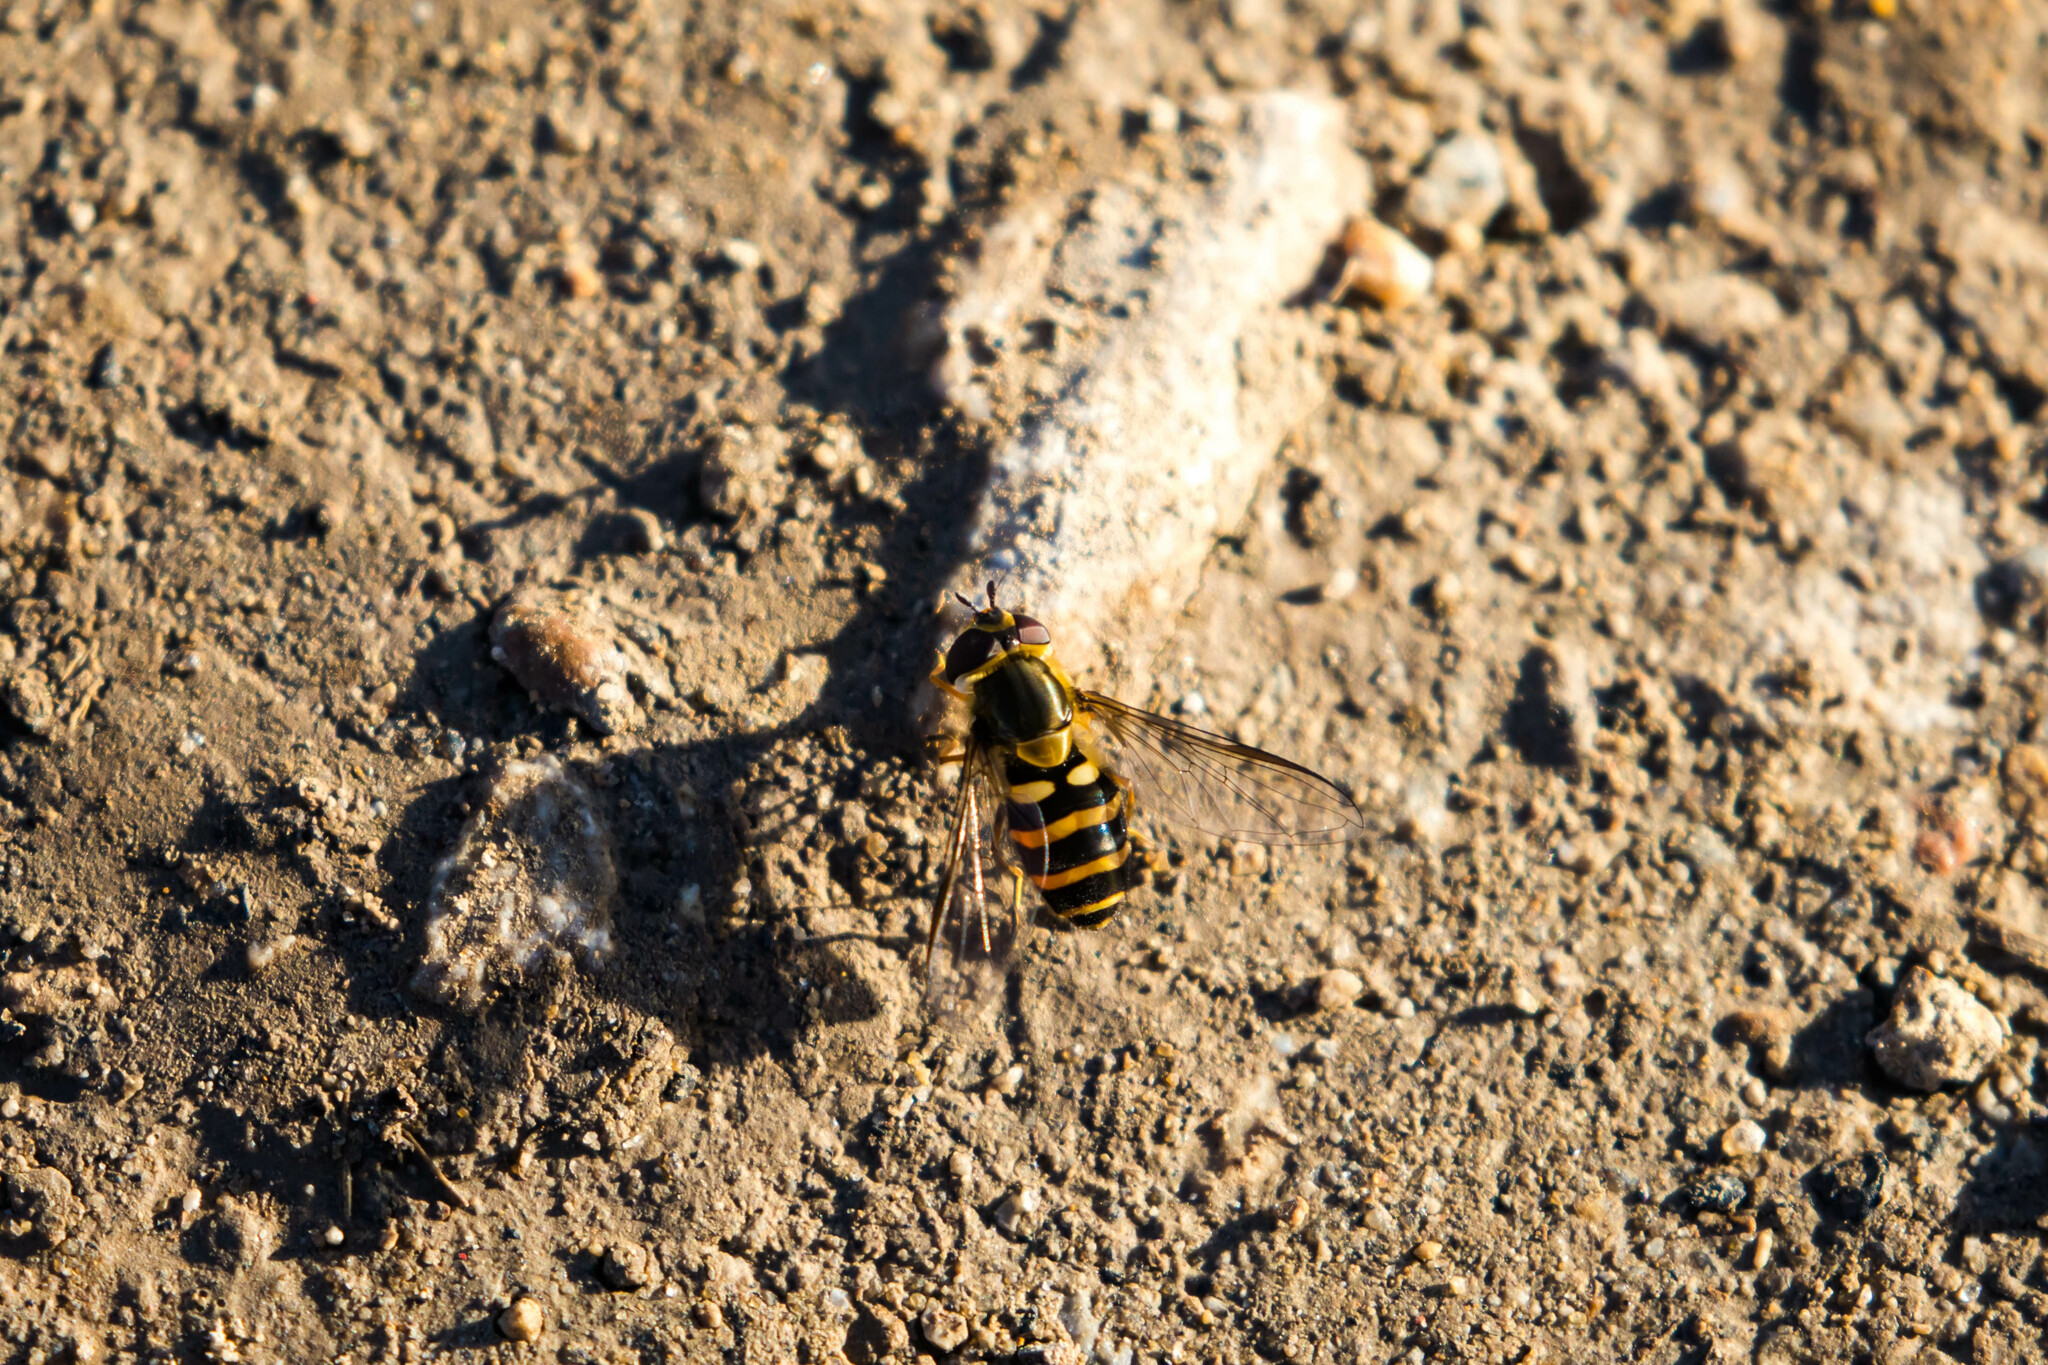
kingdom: Animalia
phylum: Arthropoda
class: Insecta
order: Diptera
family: Syrphidae
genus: Syrphus
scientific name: Syrphus
